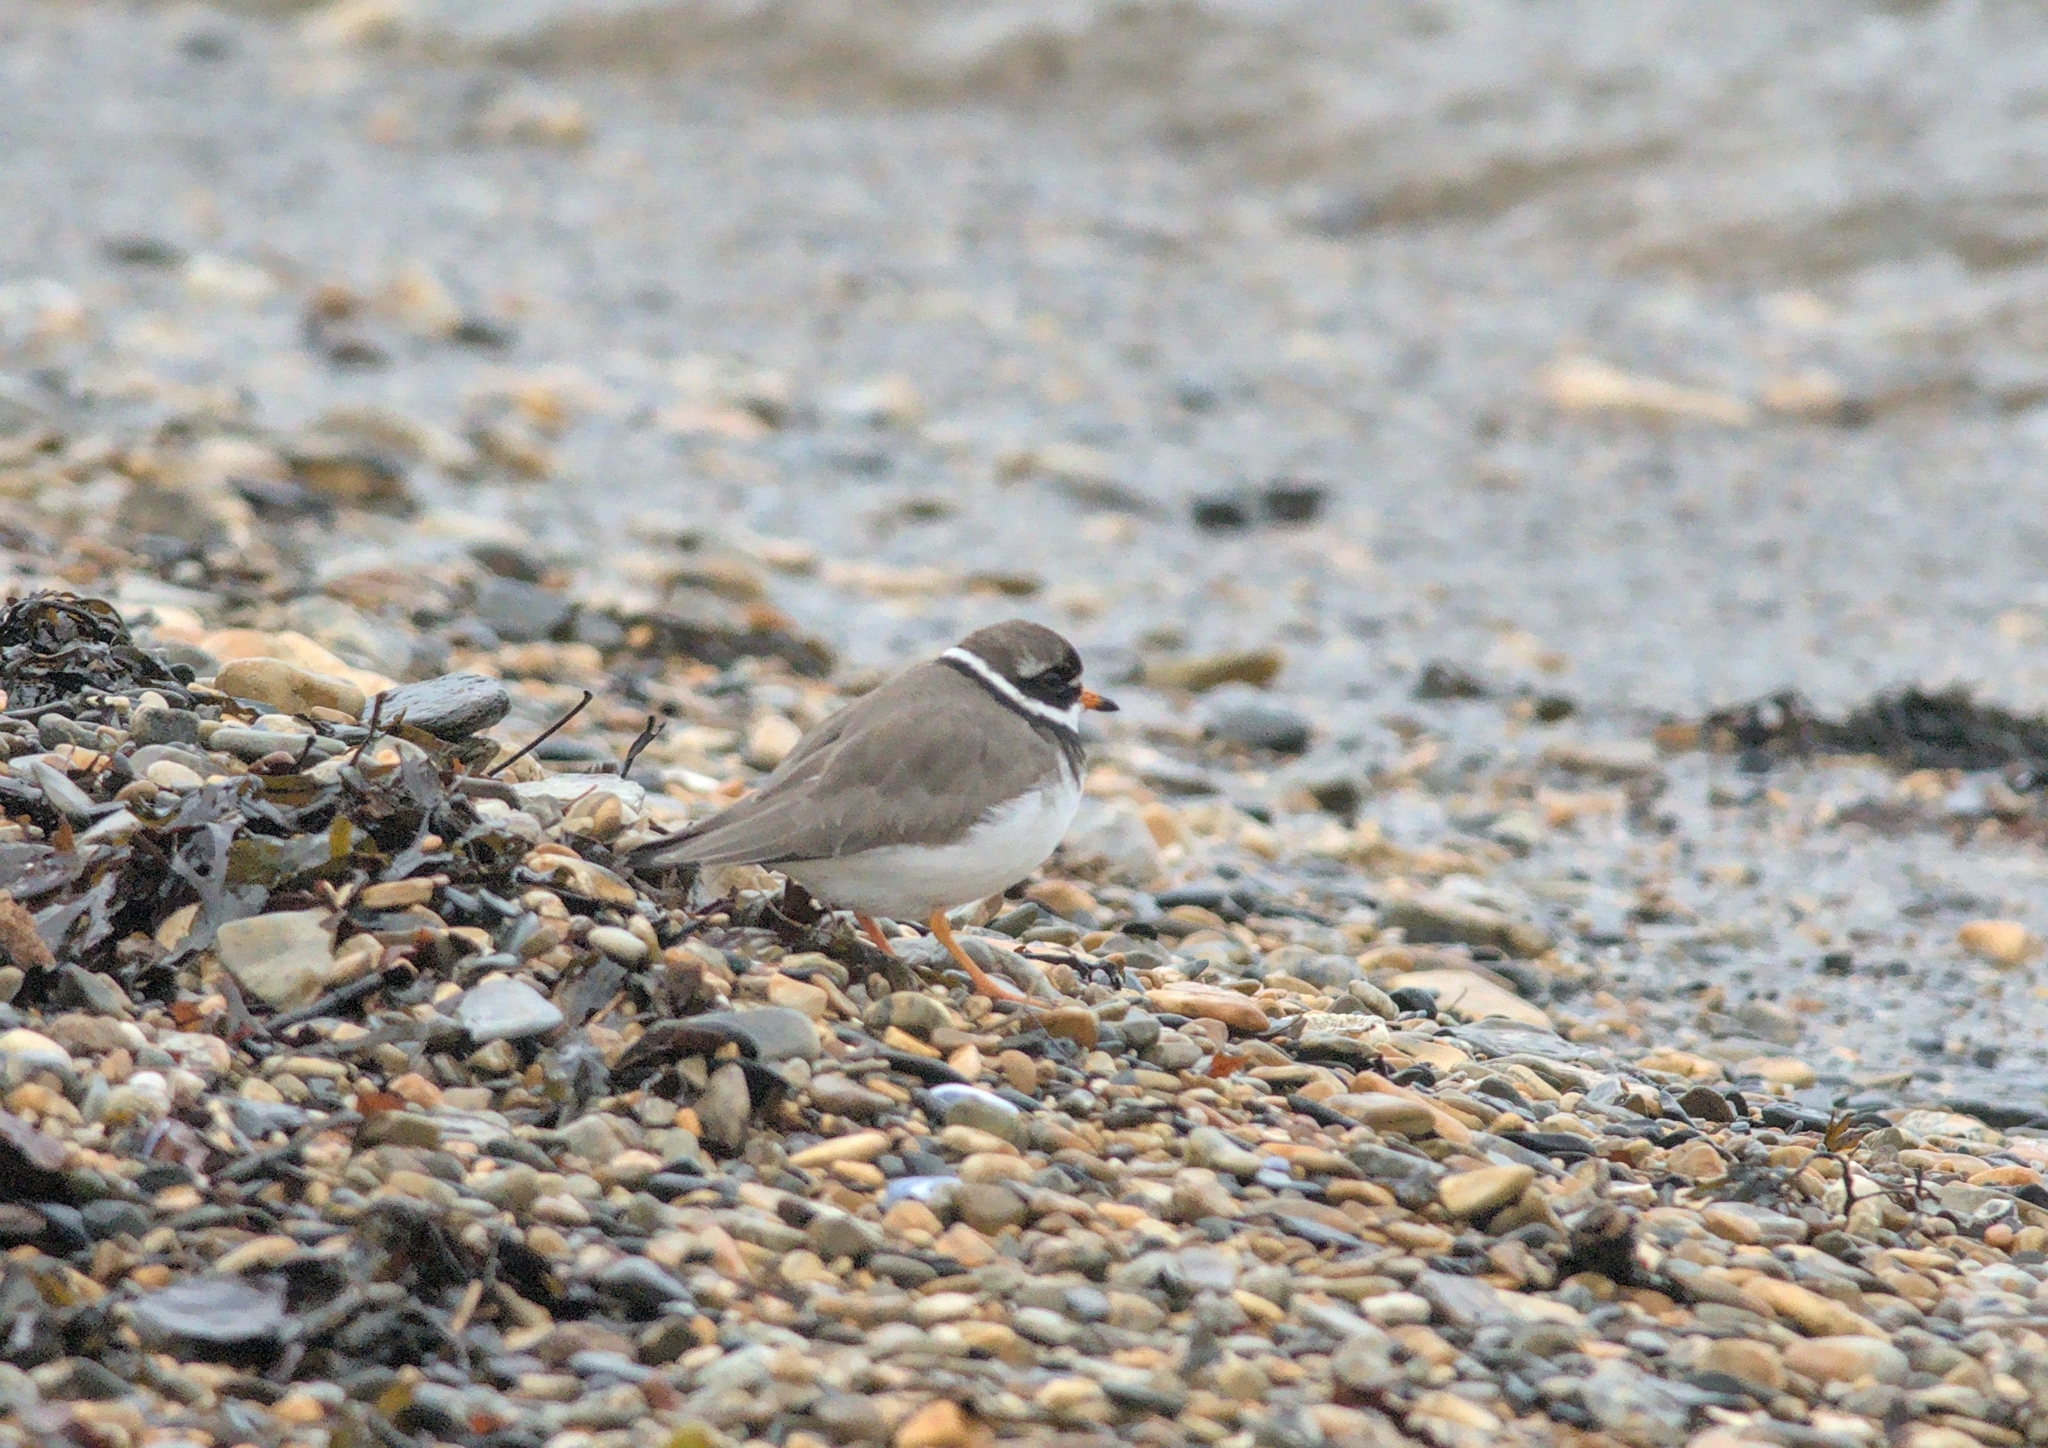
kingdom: Animalia
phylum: Chordata
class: Aves
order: Charadriiformes
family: Charadriidae
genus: Charadrius
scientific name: Charadrius hiaticula
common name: Common ringed plover
